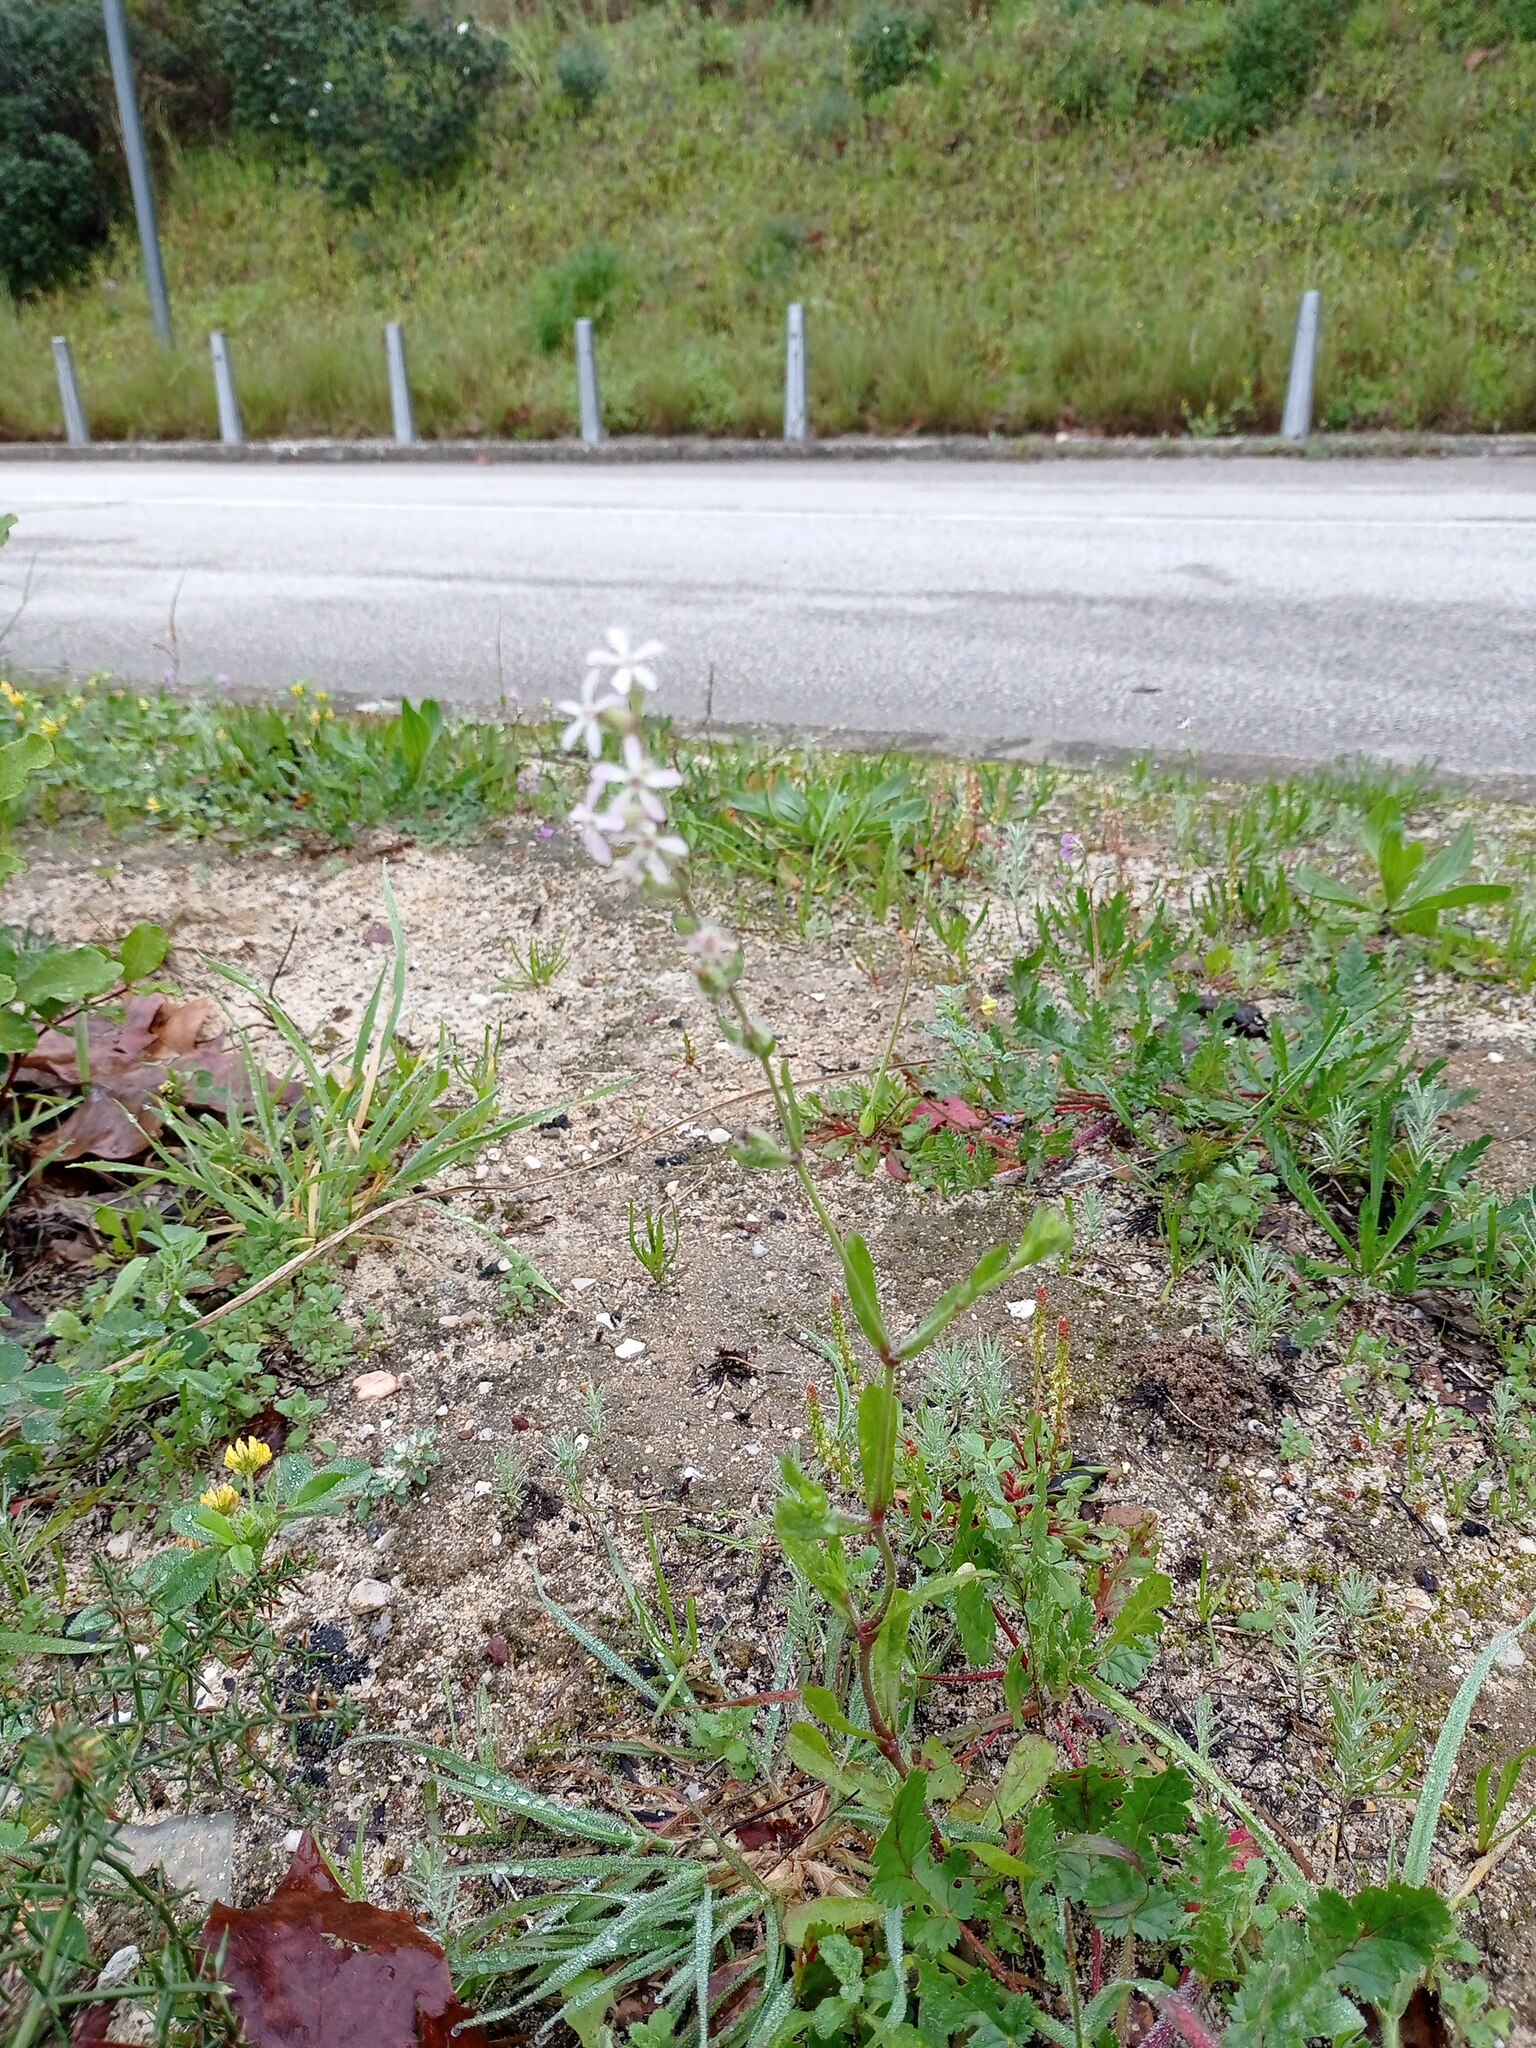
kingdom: Plantae
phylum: Tracheophyta
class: Magnoliopsida
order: Caryophyllales
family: Caryophyllaceae
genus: Silene
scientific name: Silene gallica
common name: Small-flowered catchfly
